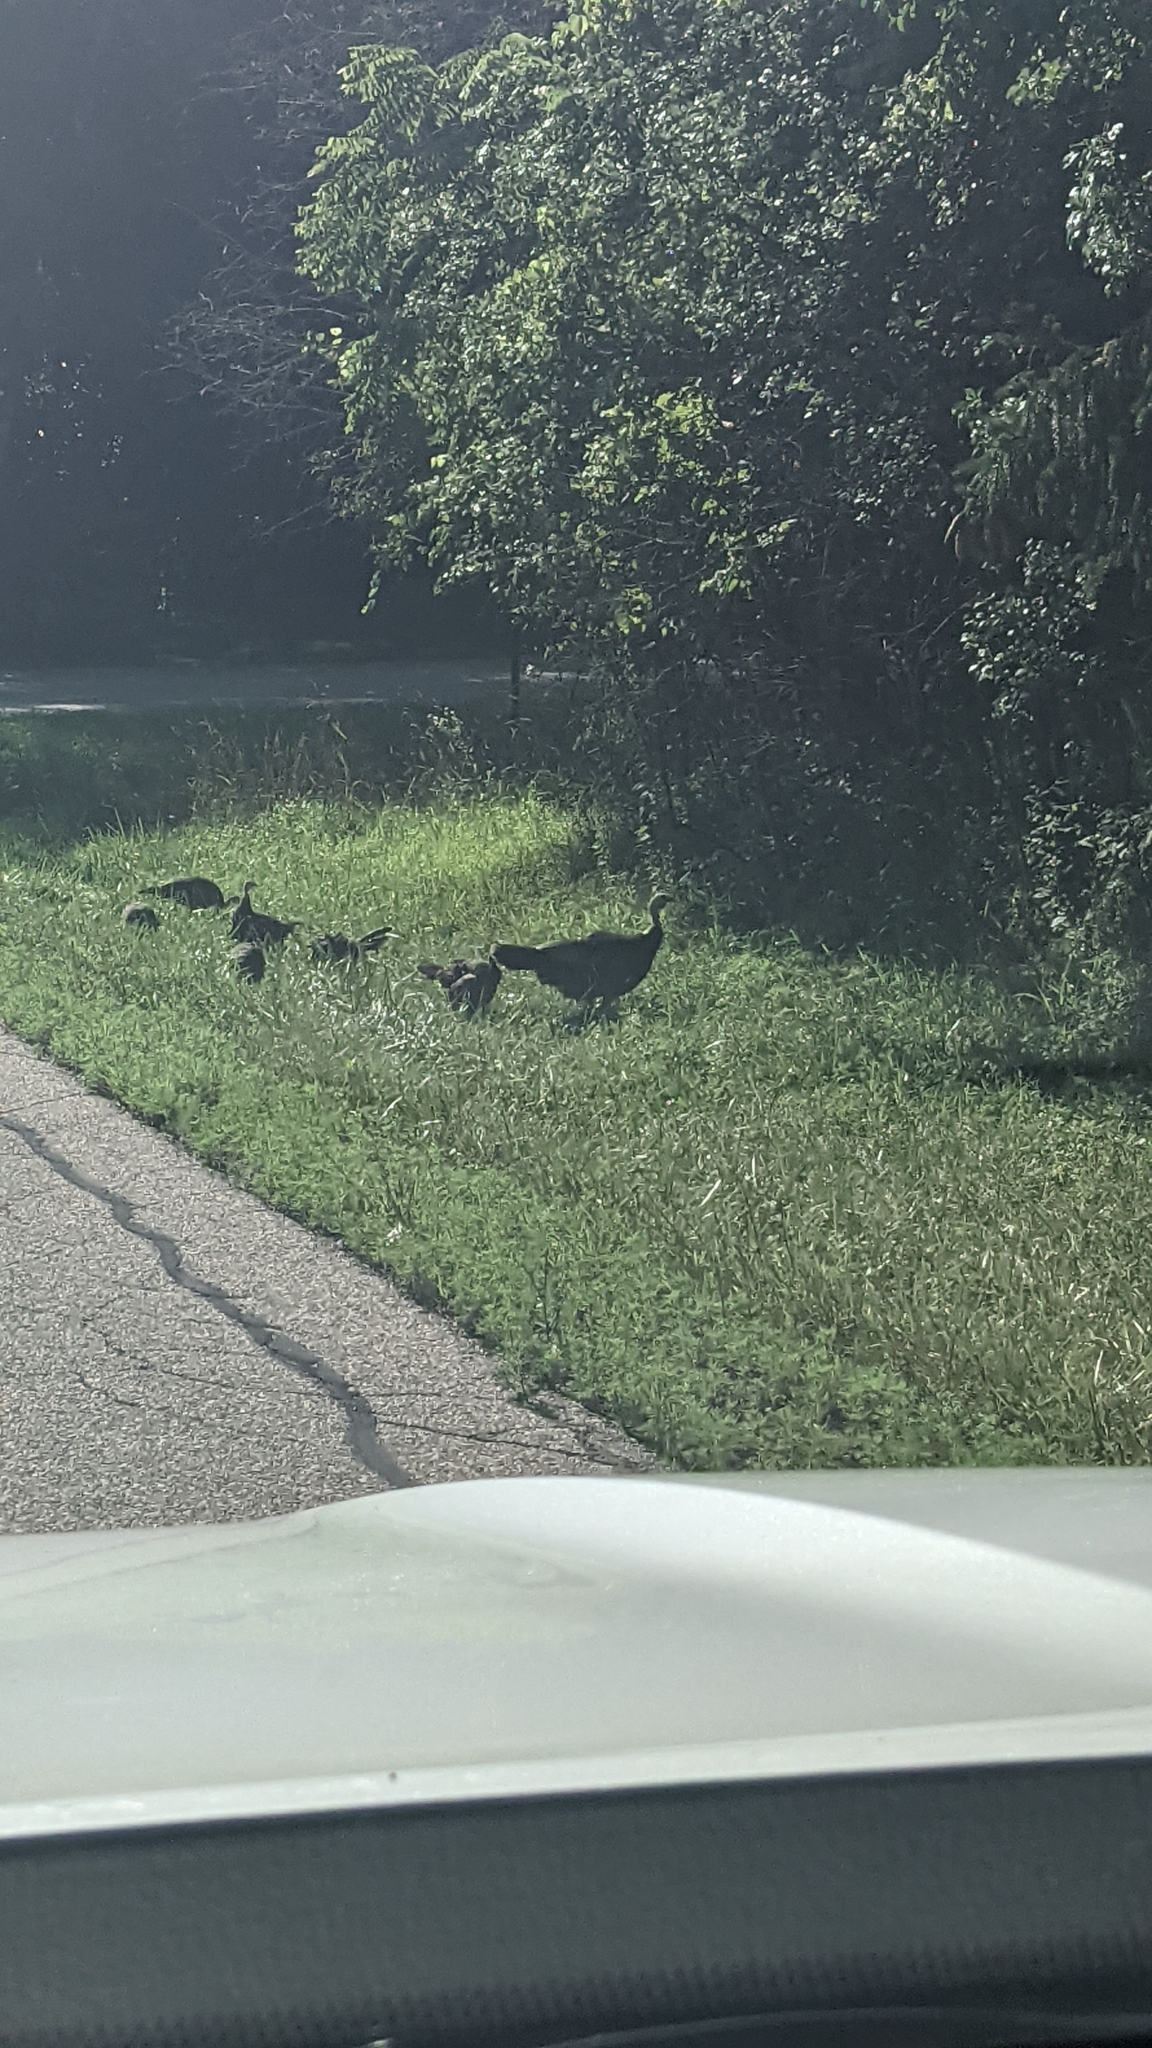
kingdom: Animalia
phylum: Chordata
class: Aves
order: Galliformes
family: Phasianidae
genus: Meleagris
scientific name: Meleagris gallopavo
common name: Wild turkey
